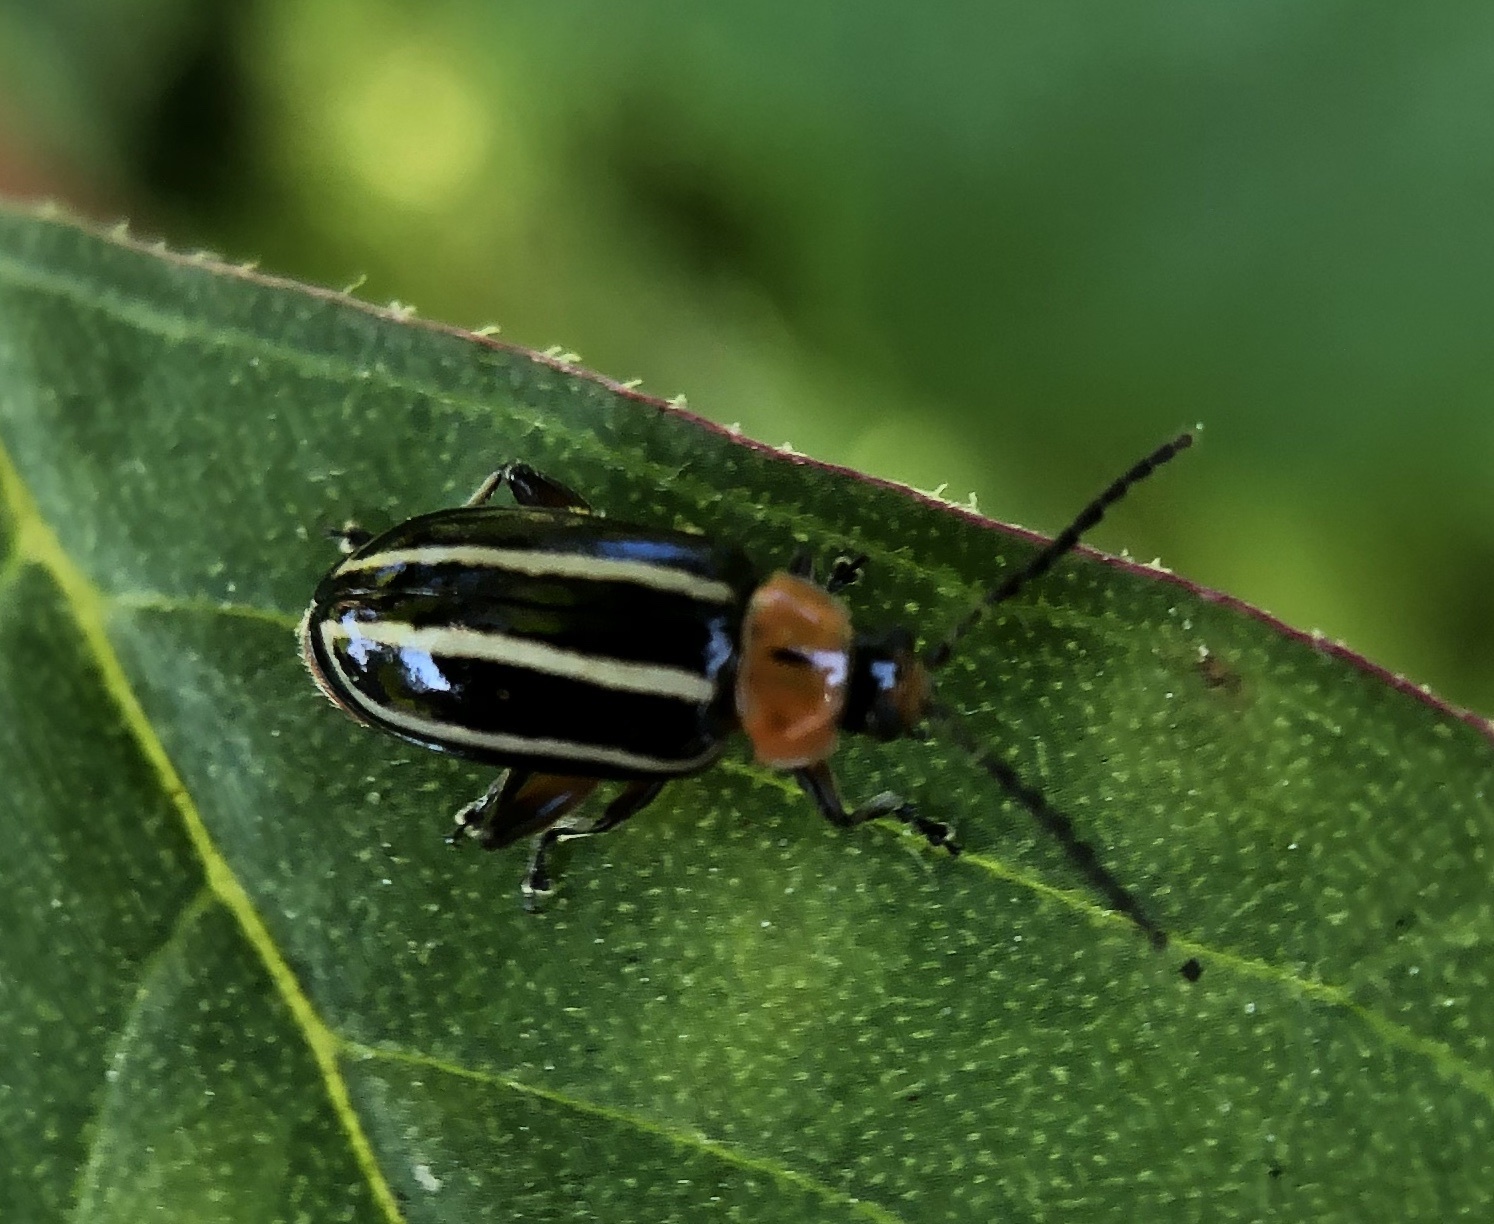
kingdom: Animalia
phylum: Arthropoda
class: Insecta
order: Coleoptera
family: Chrysomelidae
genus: Disonycha
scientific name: Disonycha glabrata
